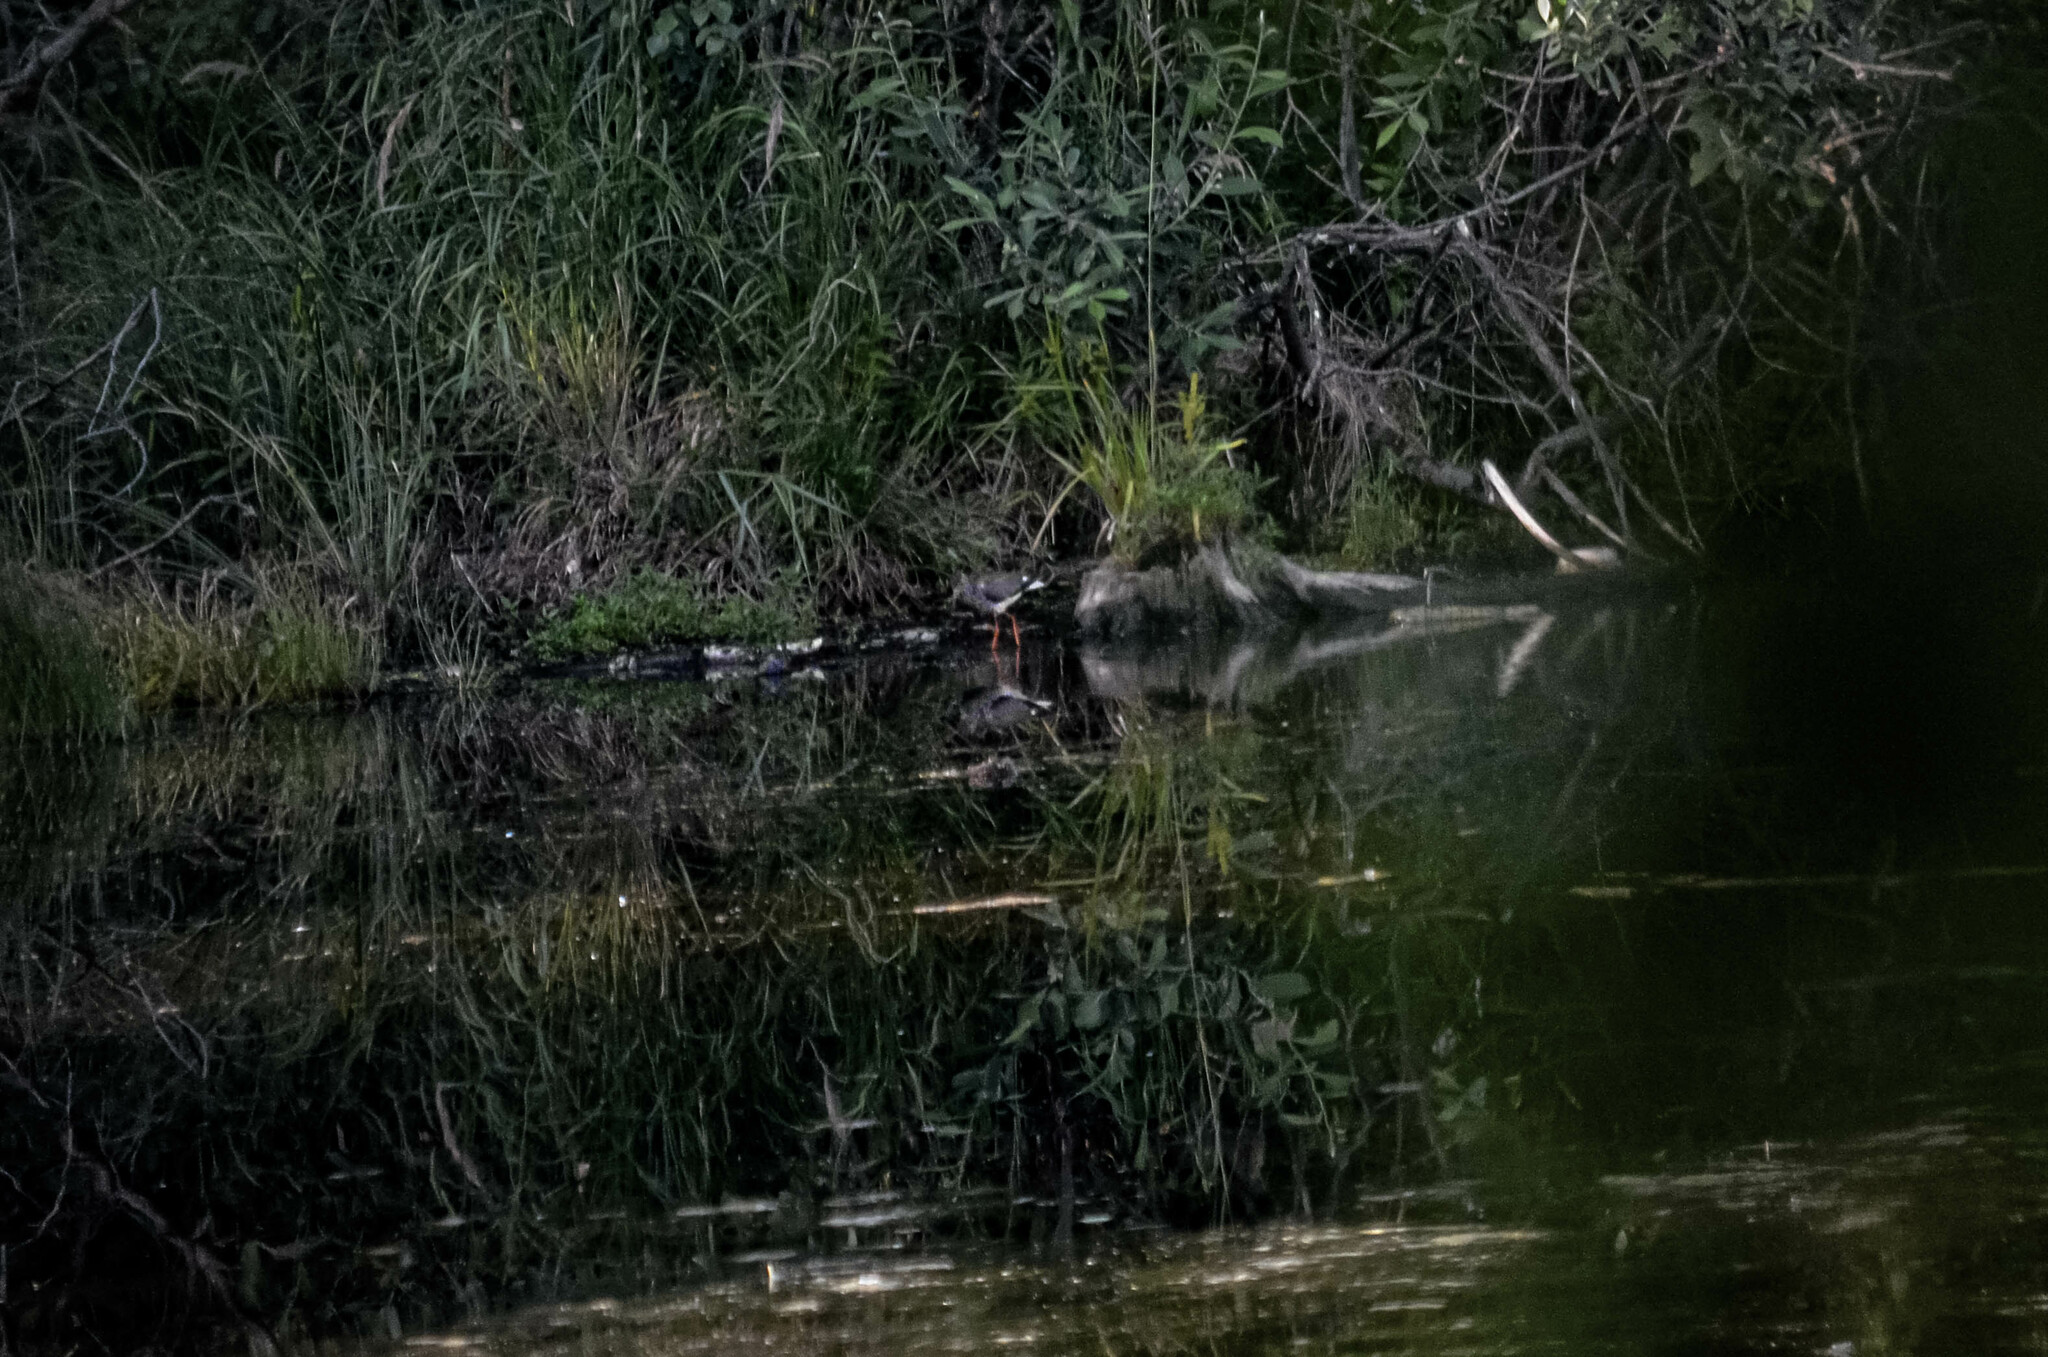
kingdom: Animalia
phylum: Chordata
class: Aves
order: Charadriiformes
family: Scolopacidae
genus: Tringa
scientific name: Tringa totanus
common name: Common redshank
